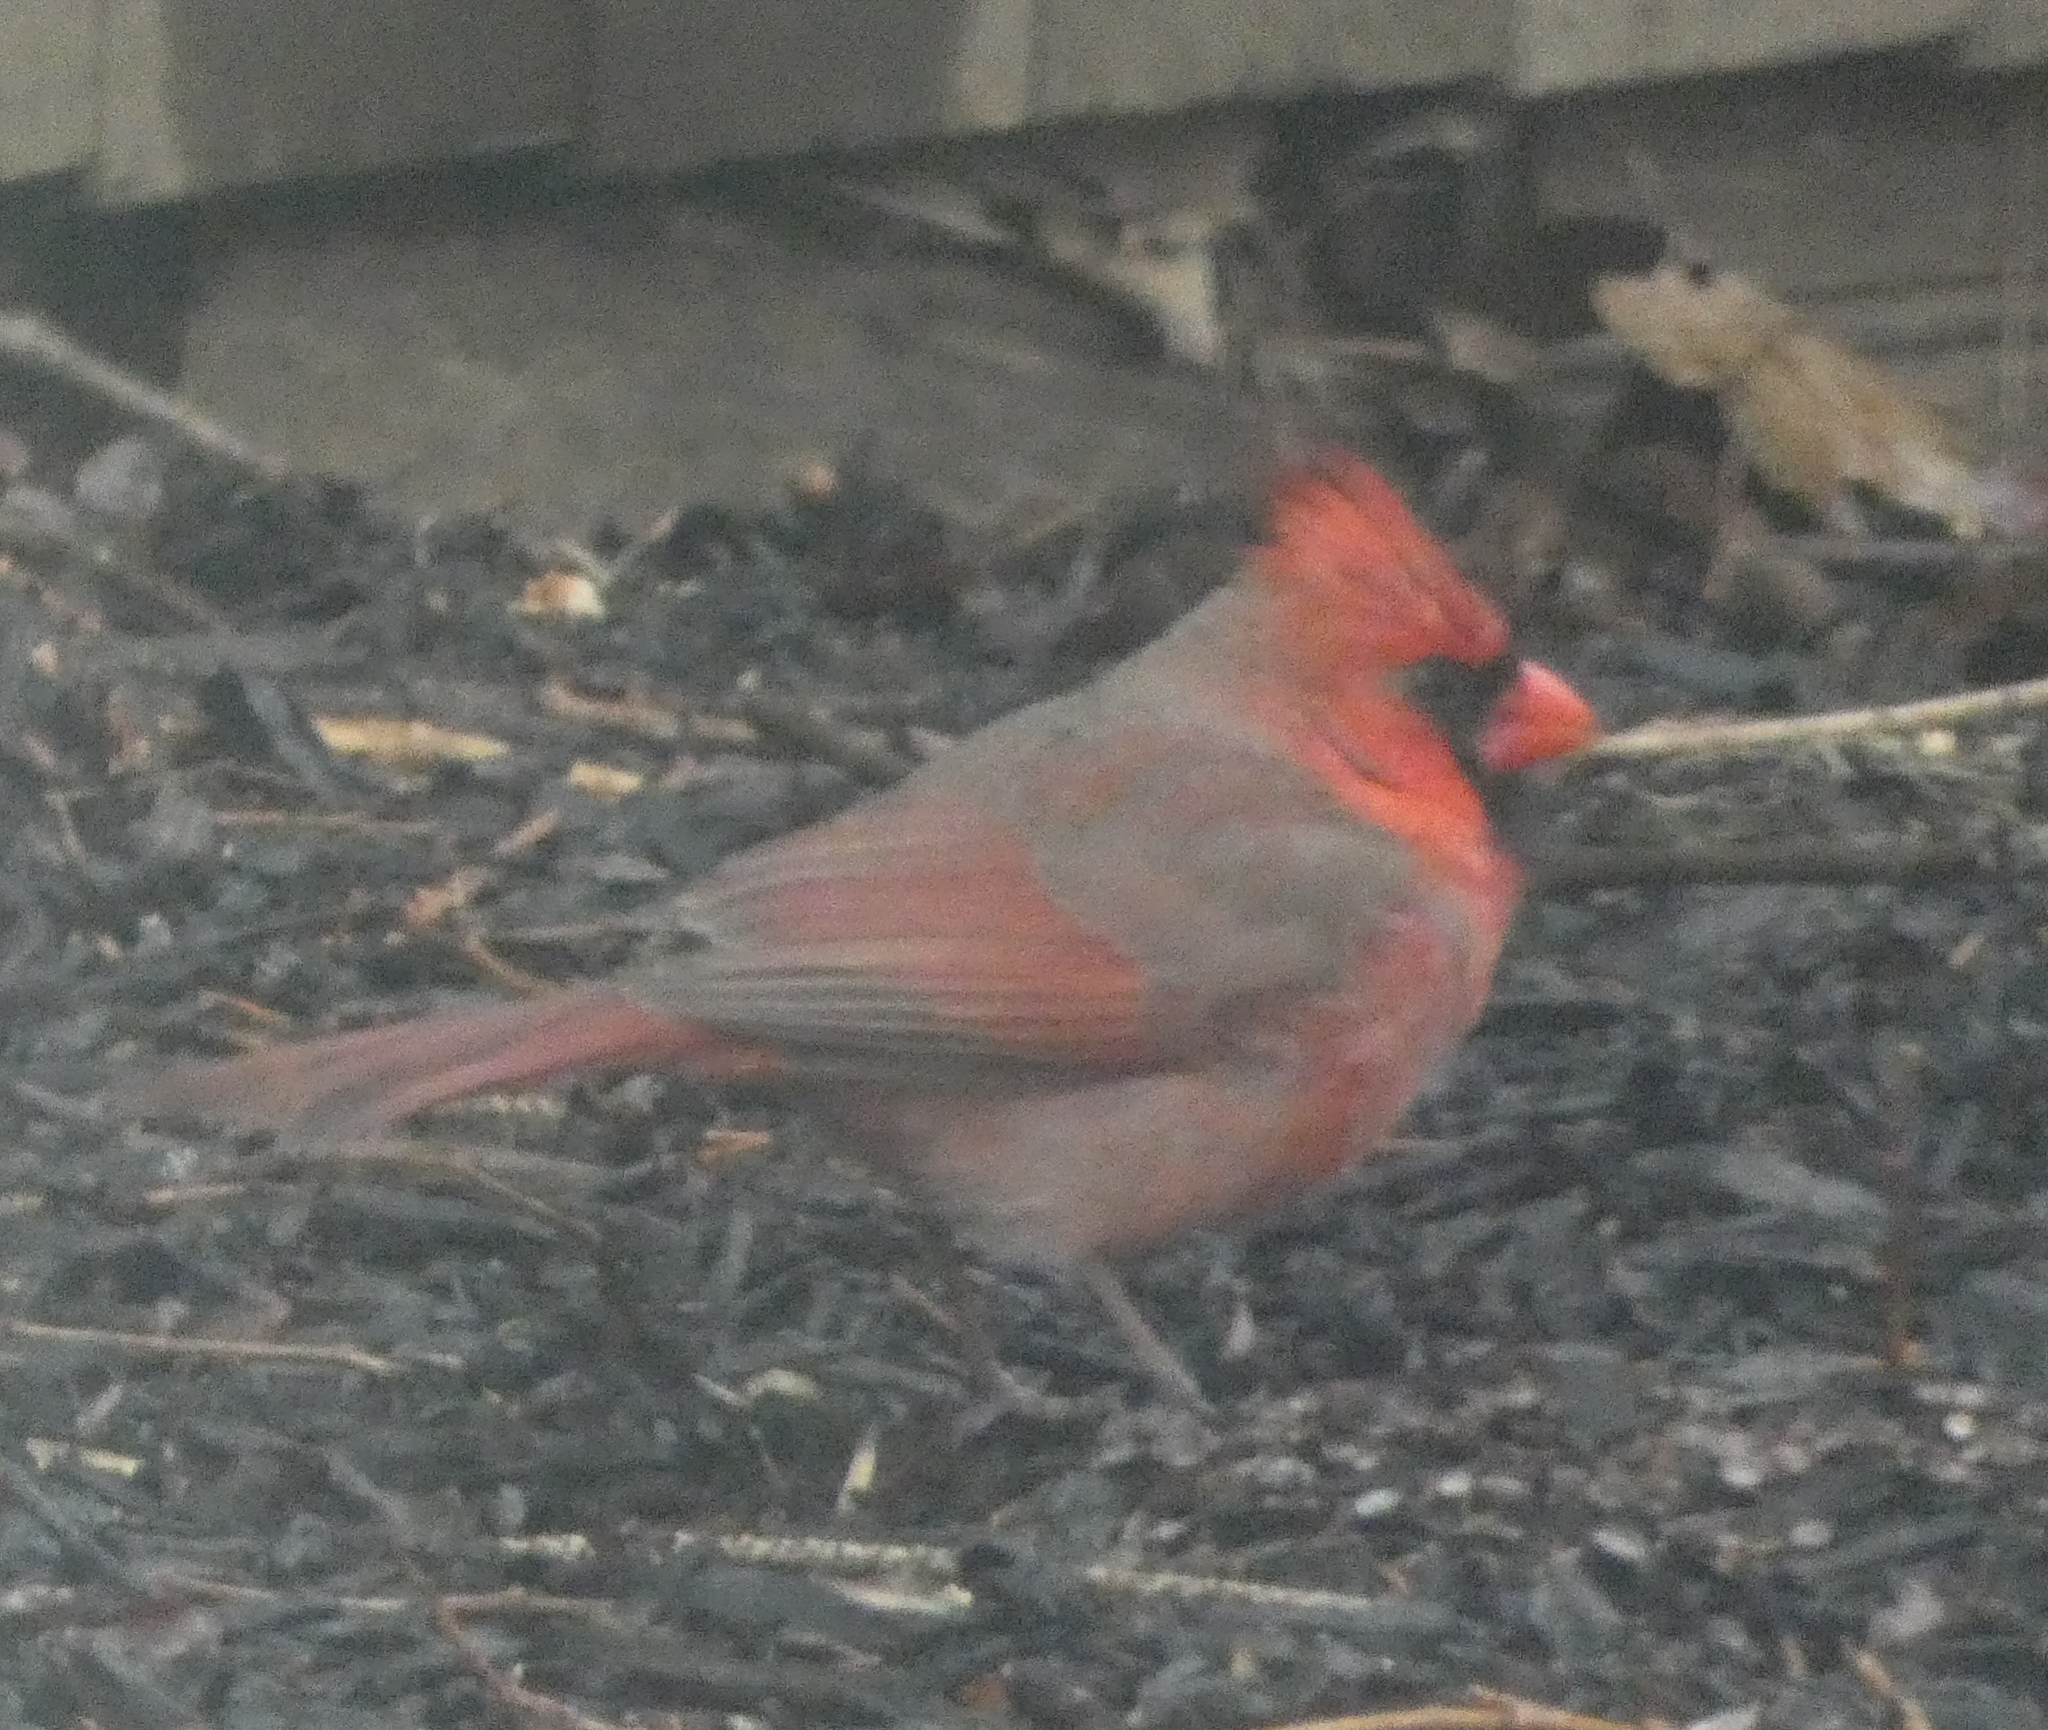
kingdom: Animalia
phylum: Chordata
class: Aves
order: Passeriformes
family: Cardinalidae
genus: Cardinalis
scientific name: Cardinalis cardinalis
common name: Northern cardinal
